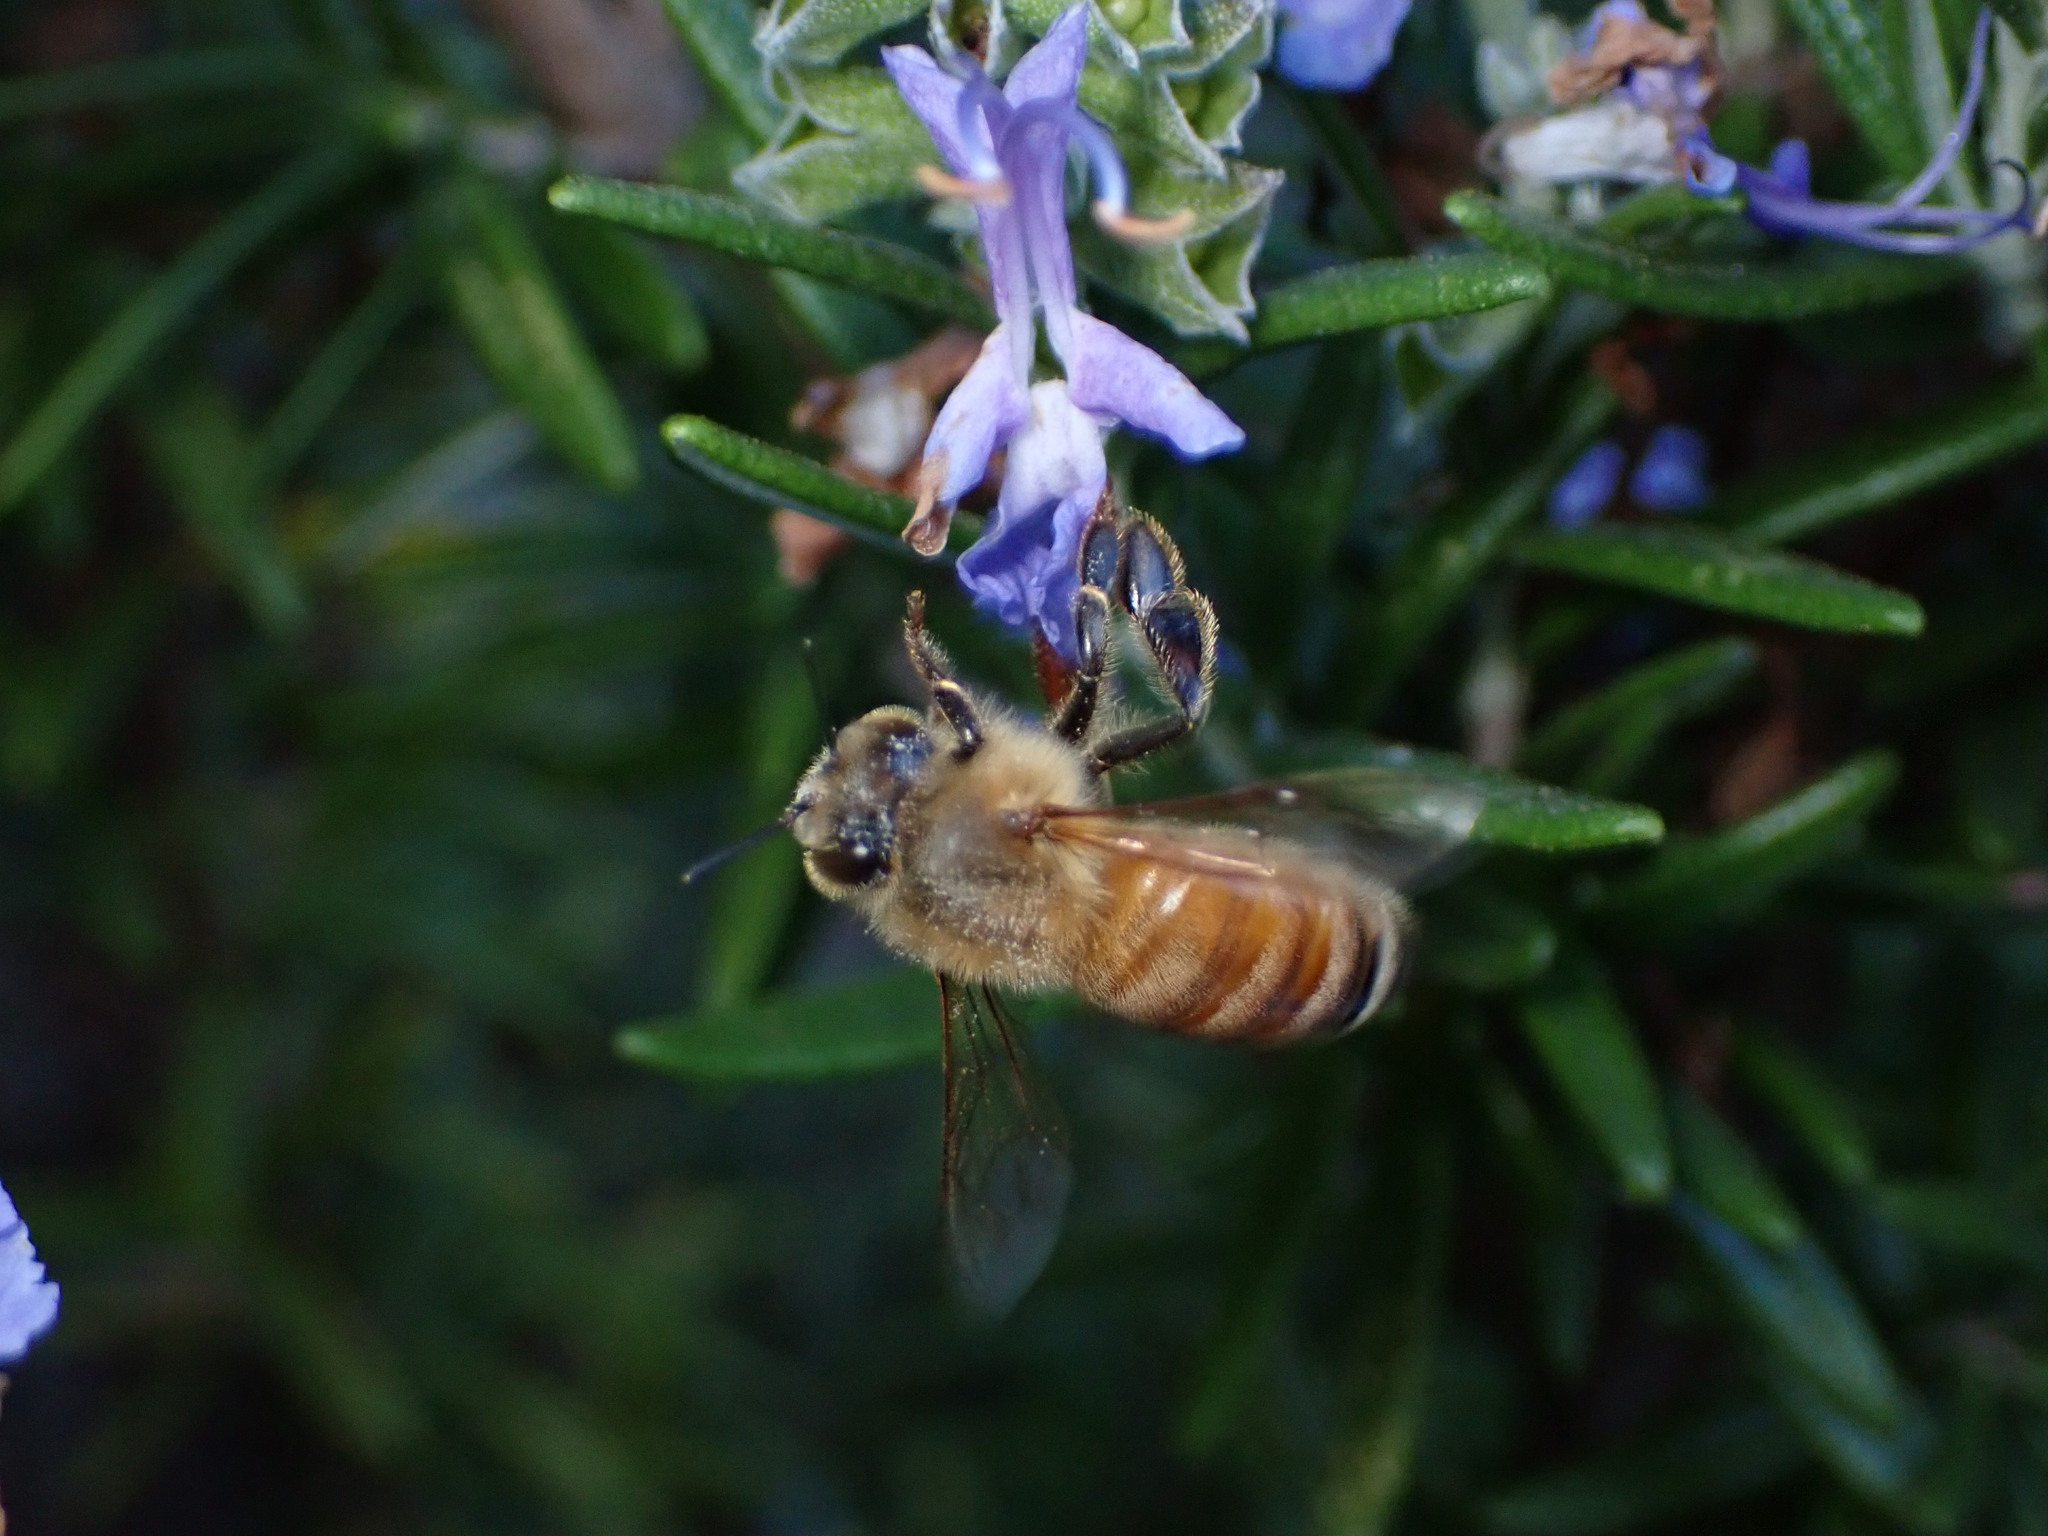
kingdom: Animalia
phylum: Arthropoda
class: Insecta
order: Hymenoptera
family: Apidae
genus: Apis
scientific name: Apis mellifera
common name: Honey bee
